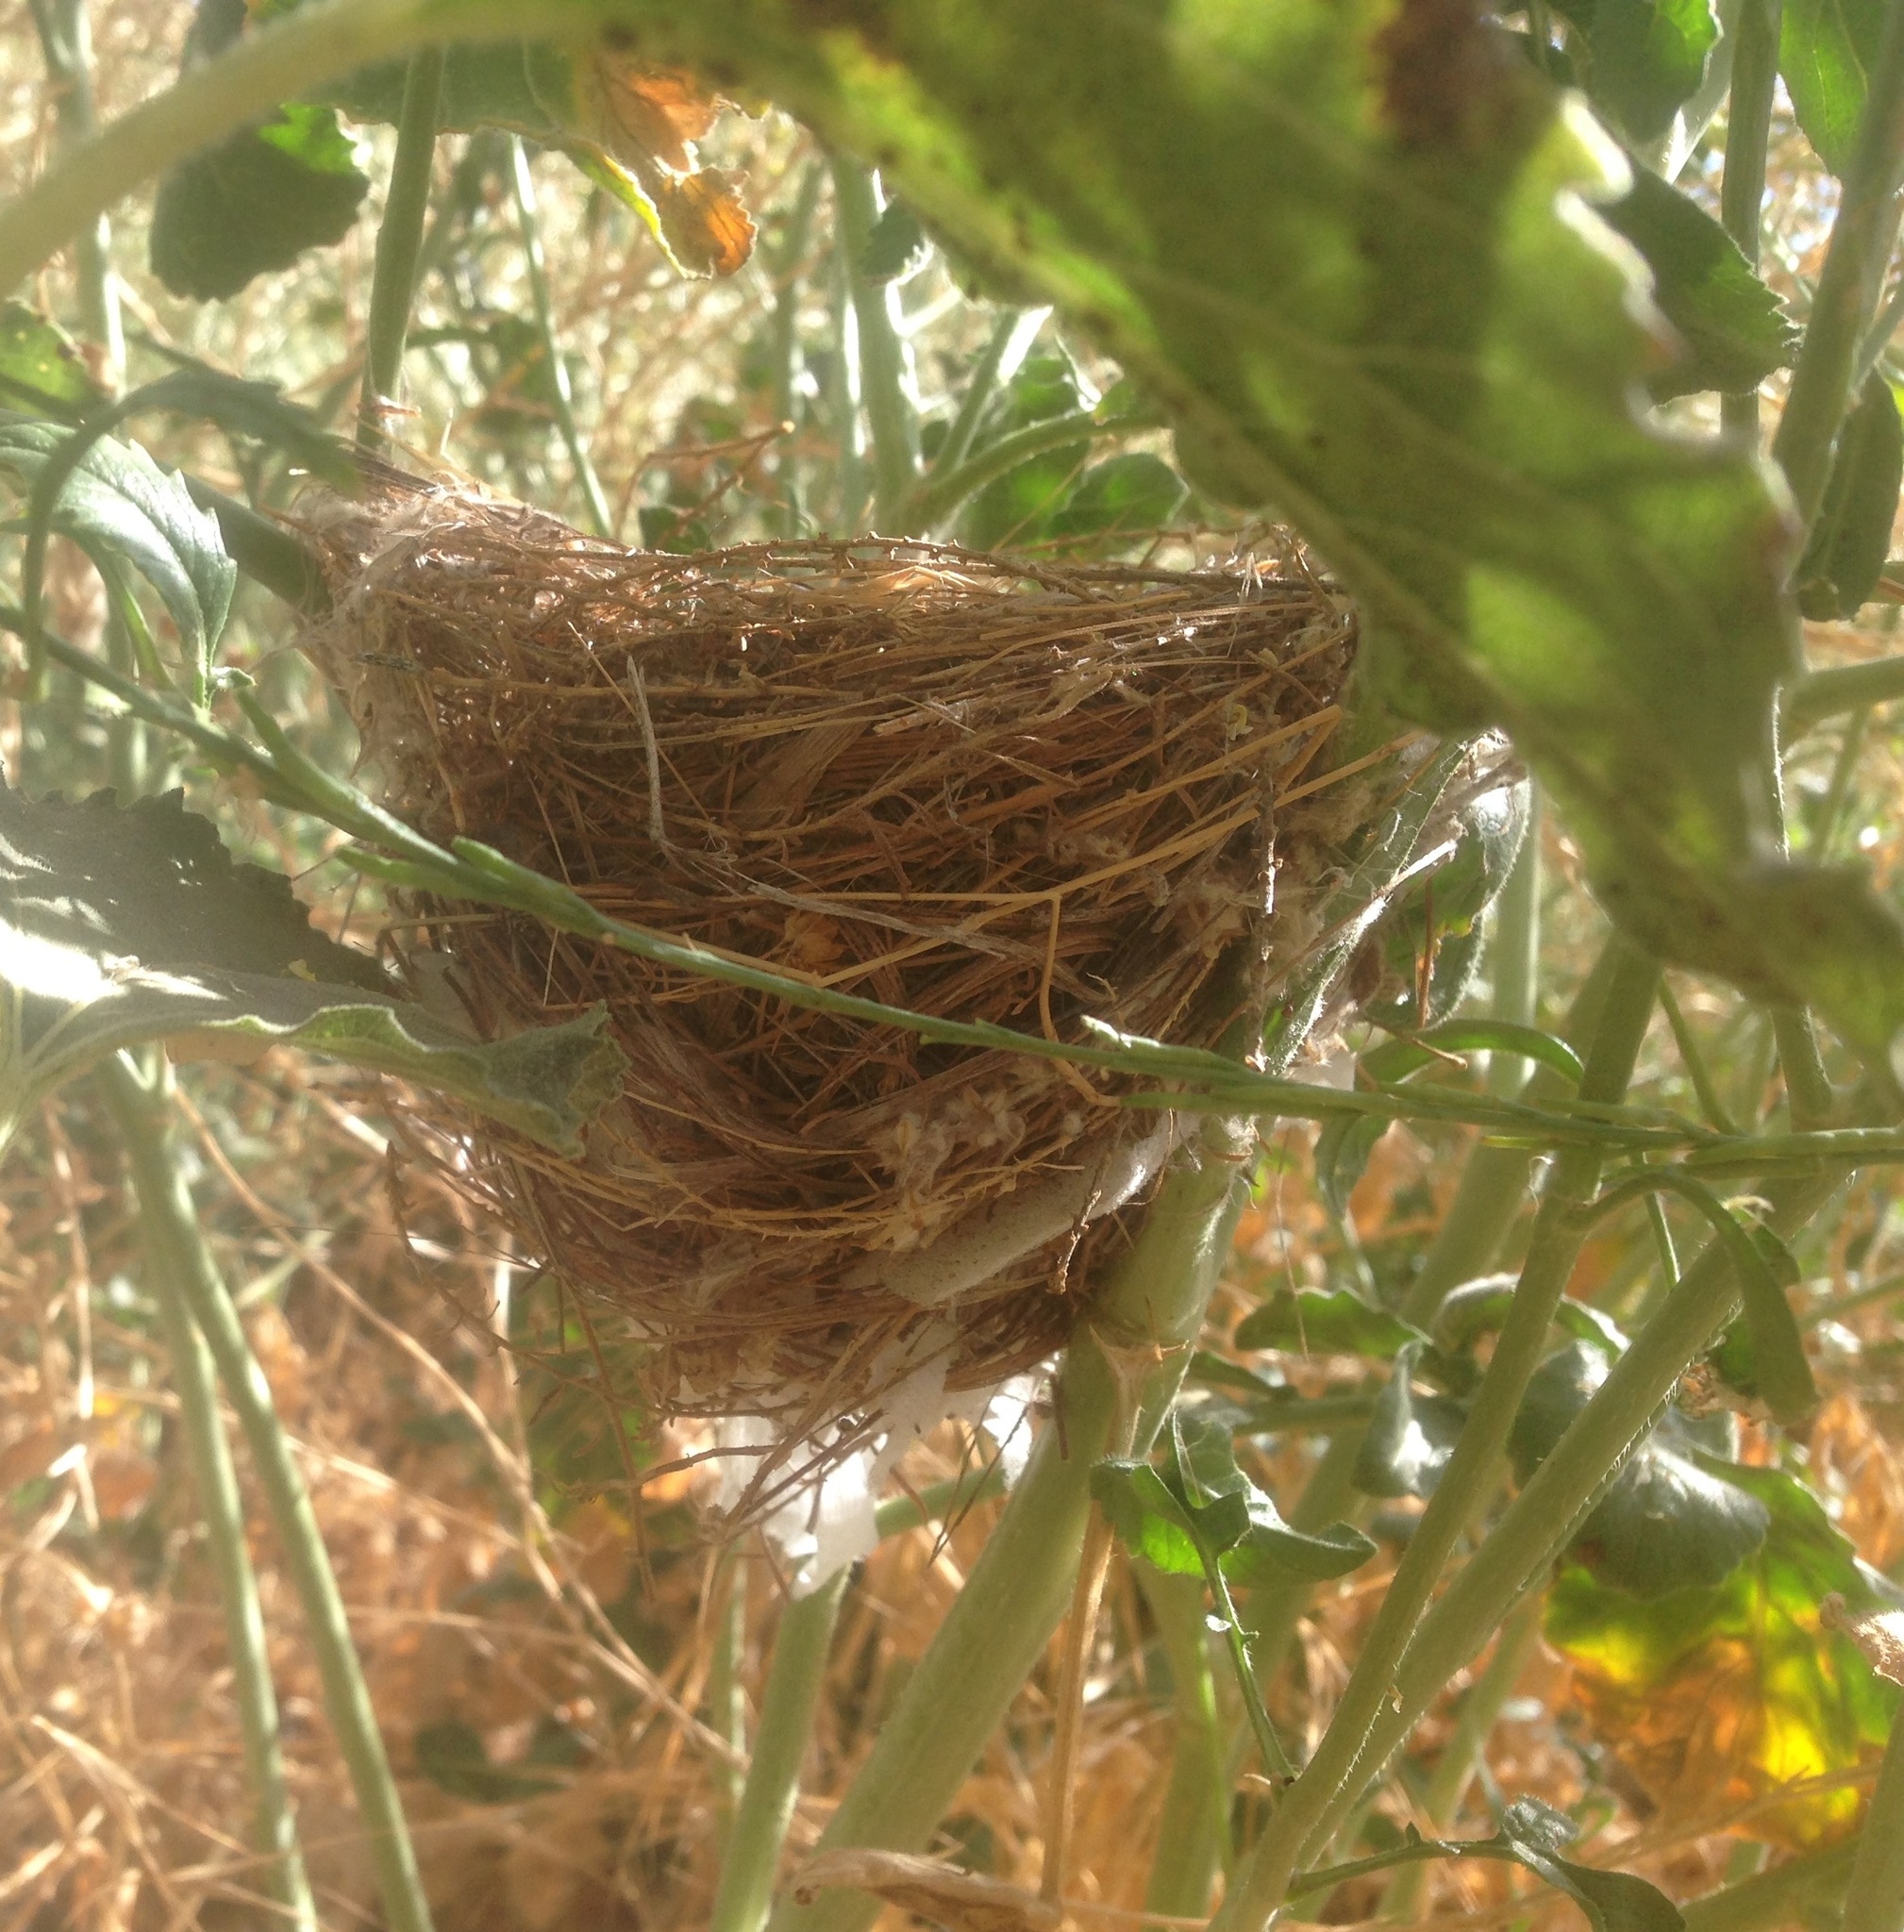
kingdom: Animalia
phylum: Chordata
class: Aves
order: Passeriformes
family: Cardinalidae
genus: Passerina
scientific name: Passerina caerulea
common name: Blue grosbeak
